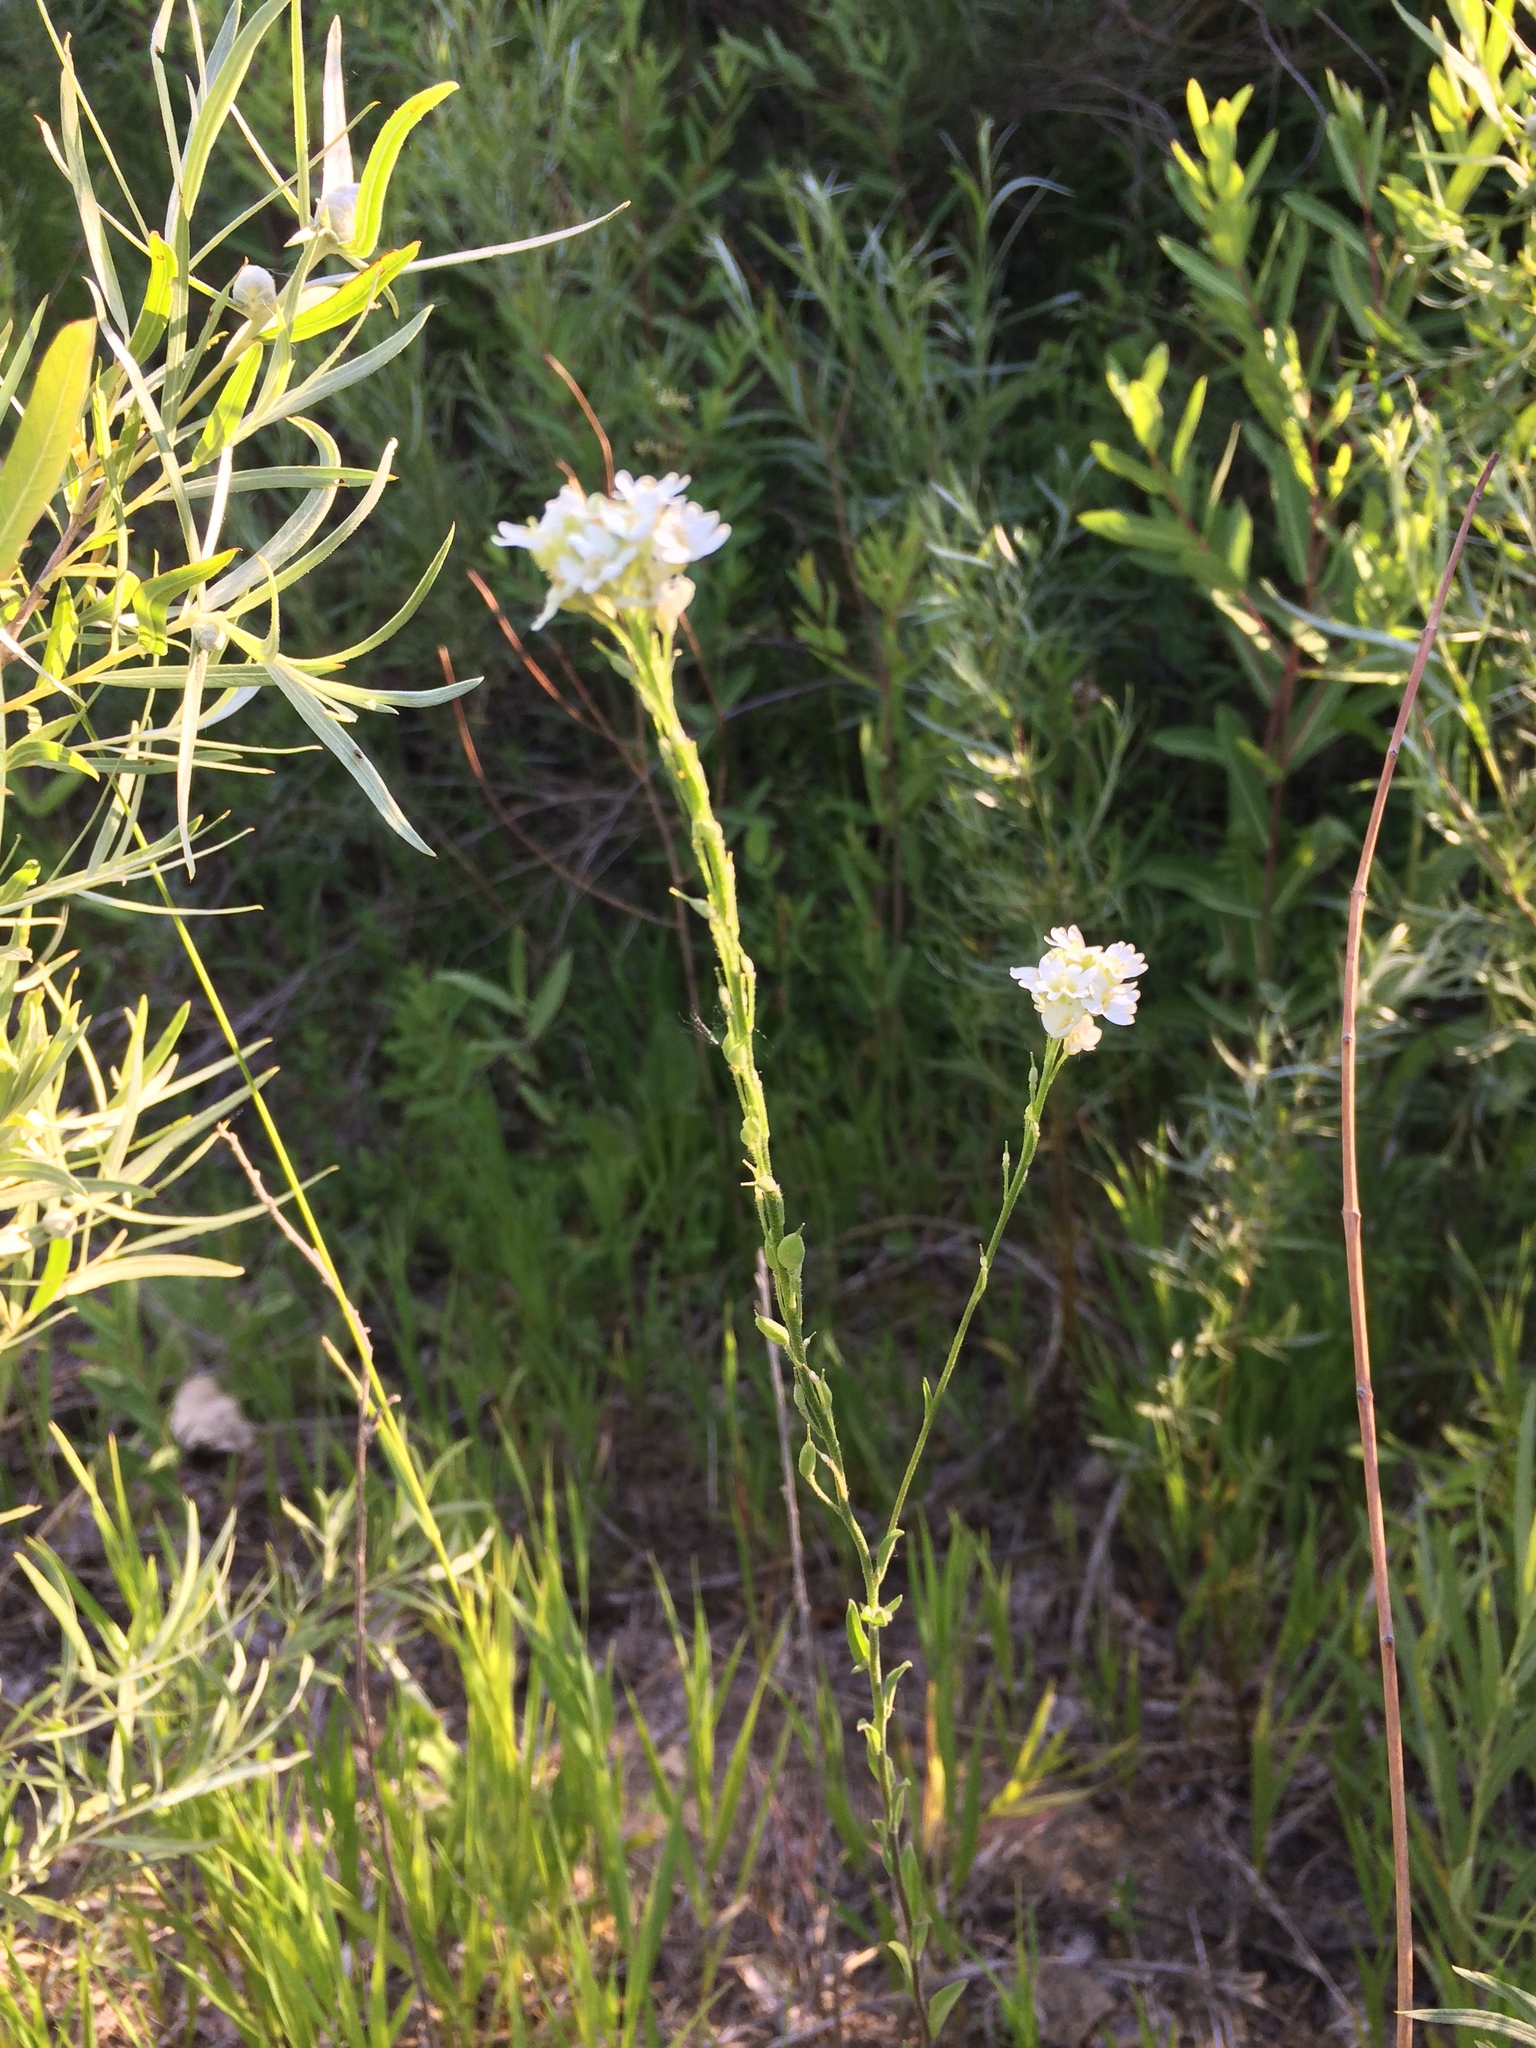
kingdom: Plantae
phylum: Tracheophyta
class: Magnoliopsida
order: Brassicales
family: Brassicaceae
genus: Berteroa
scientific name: Berteroa incana
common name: Hoary alison
